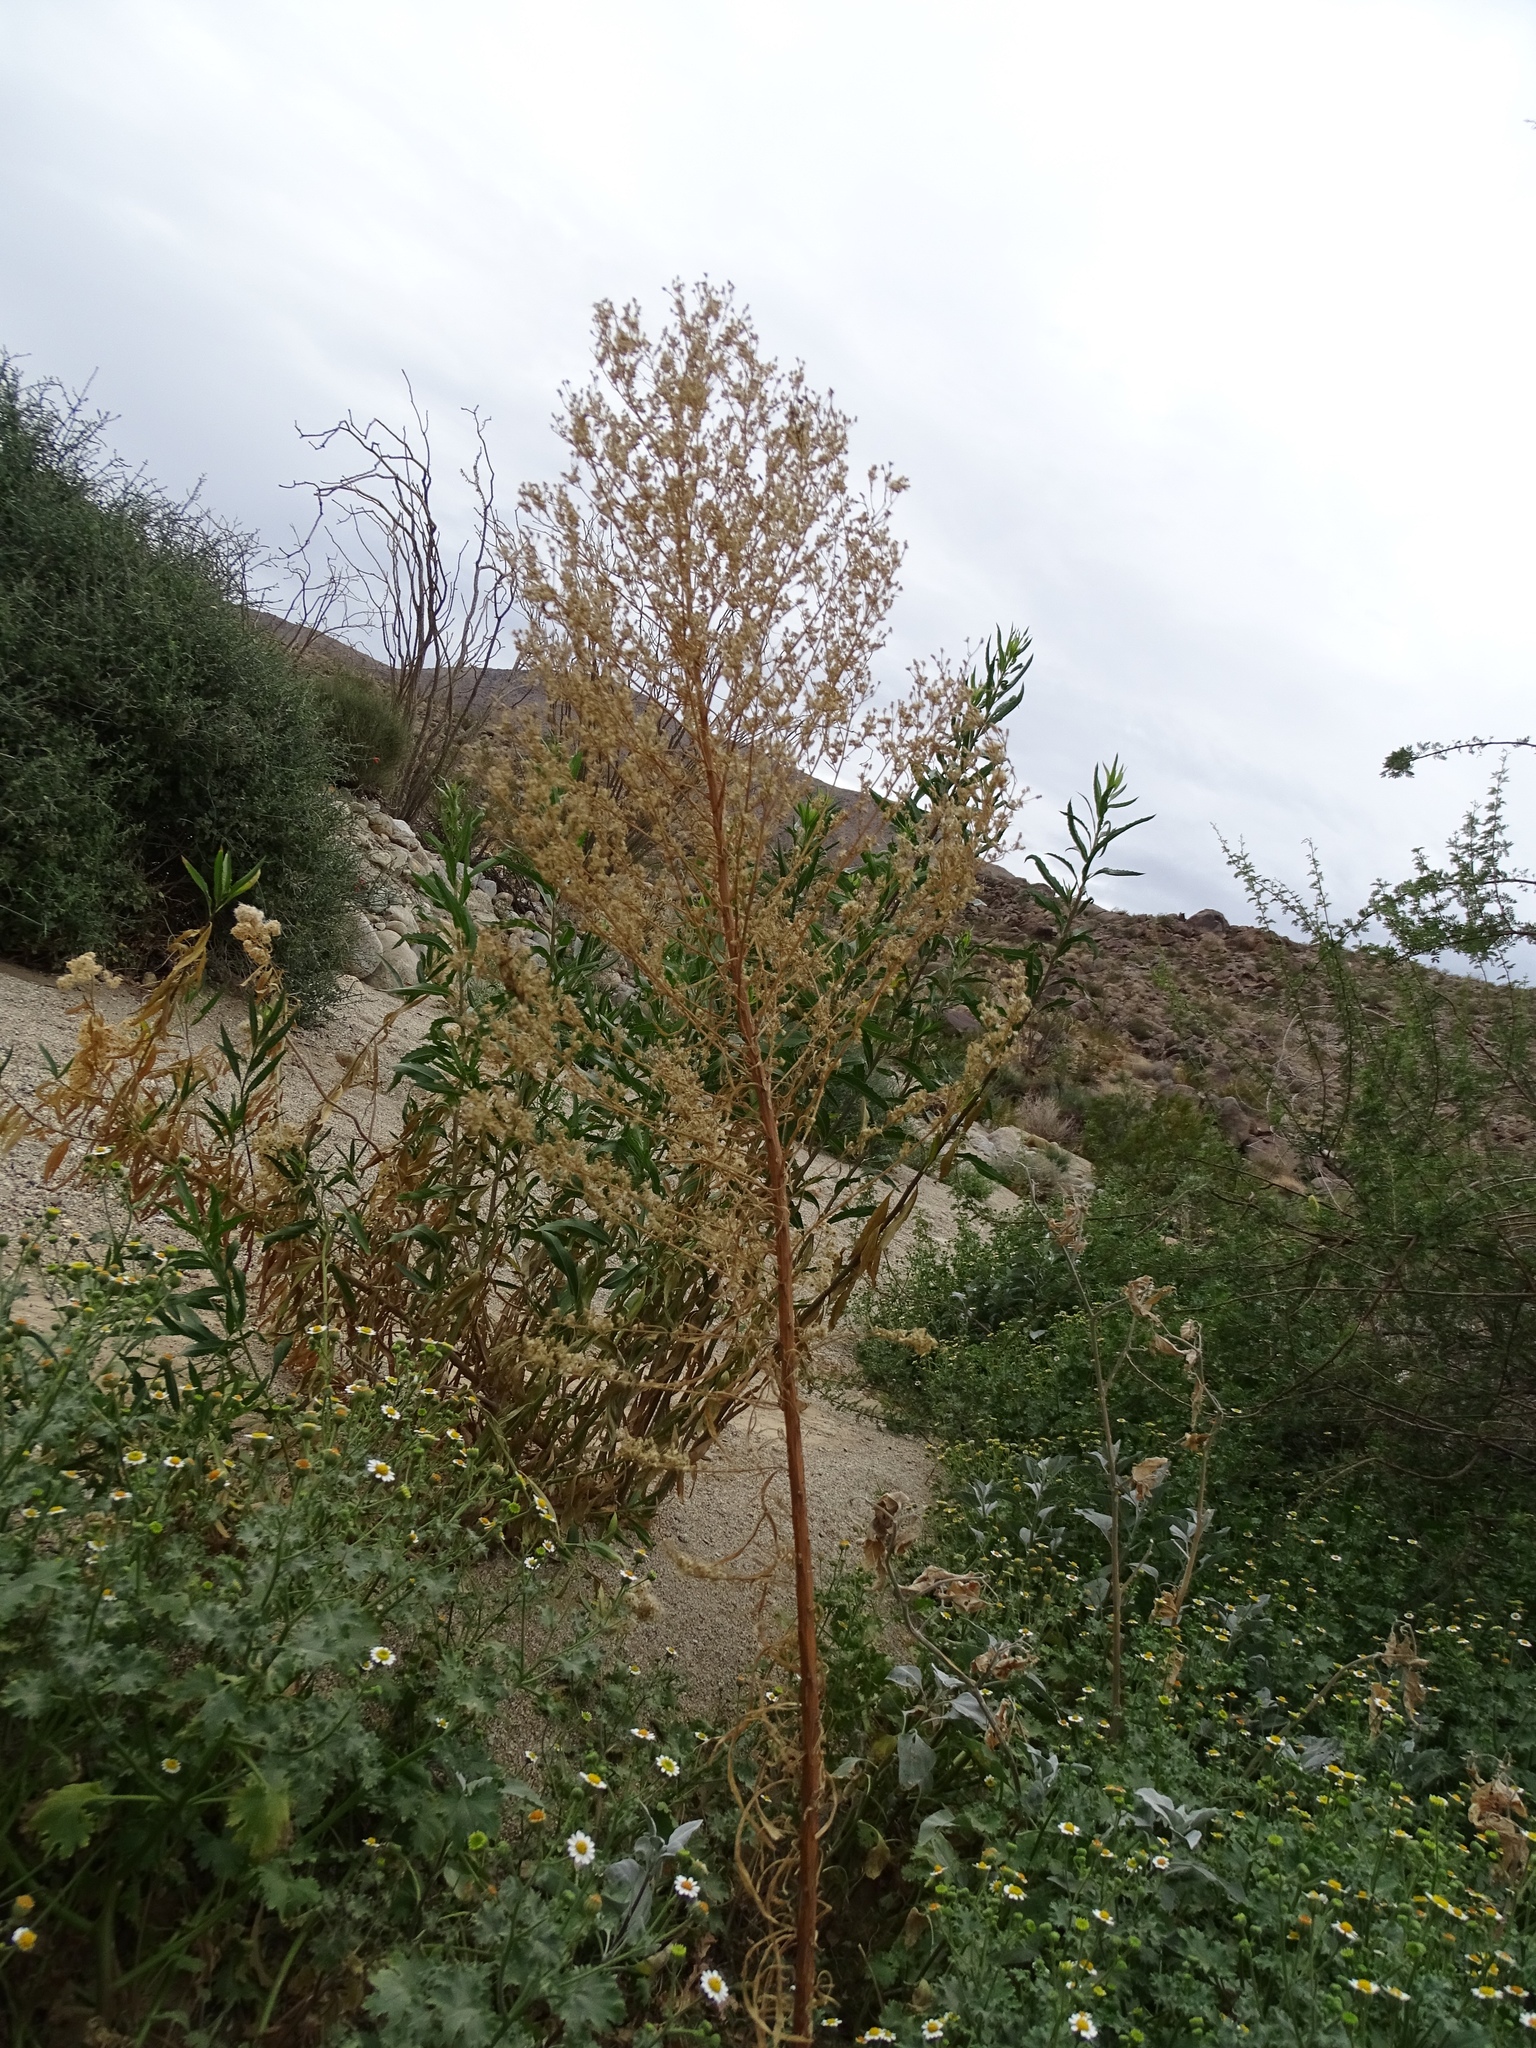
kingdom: Plantae
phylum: Tracheophyta
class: Magnoliopsida
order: Asterales
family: Asteraceae
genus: Erigeron
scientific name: Erigeron canadensis
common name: Canadian fleabane
